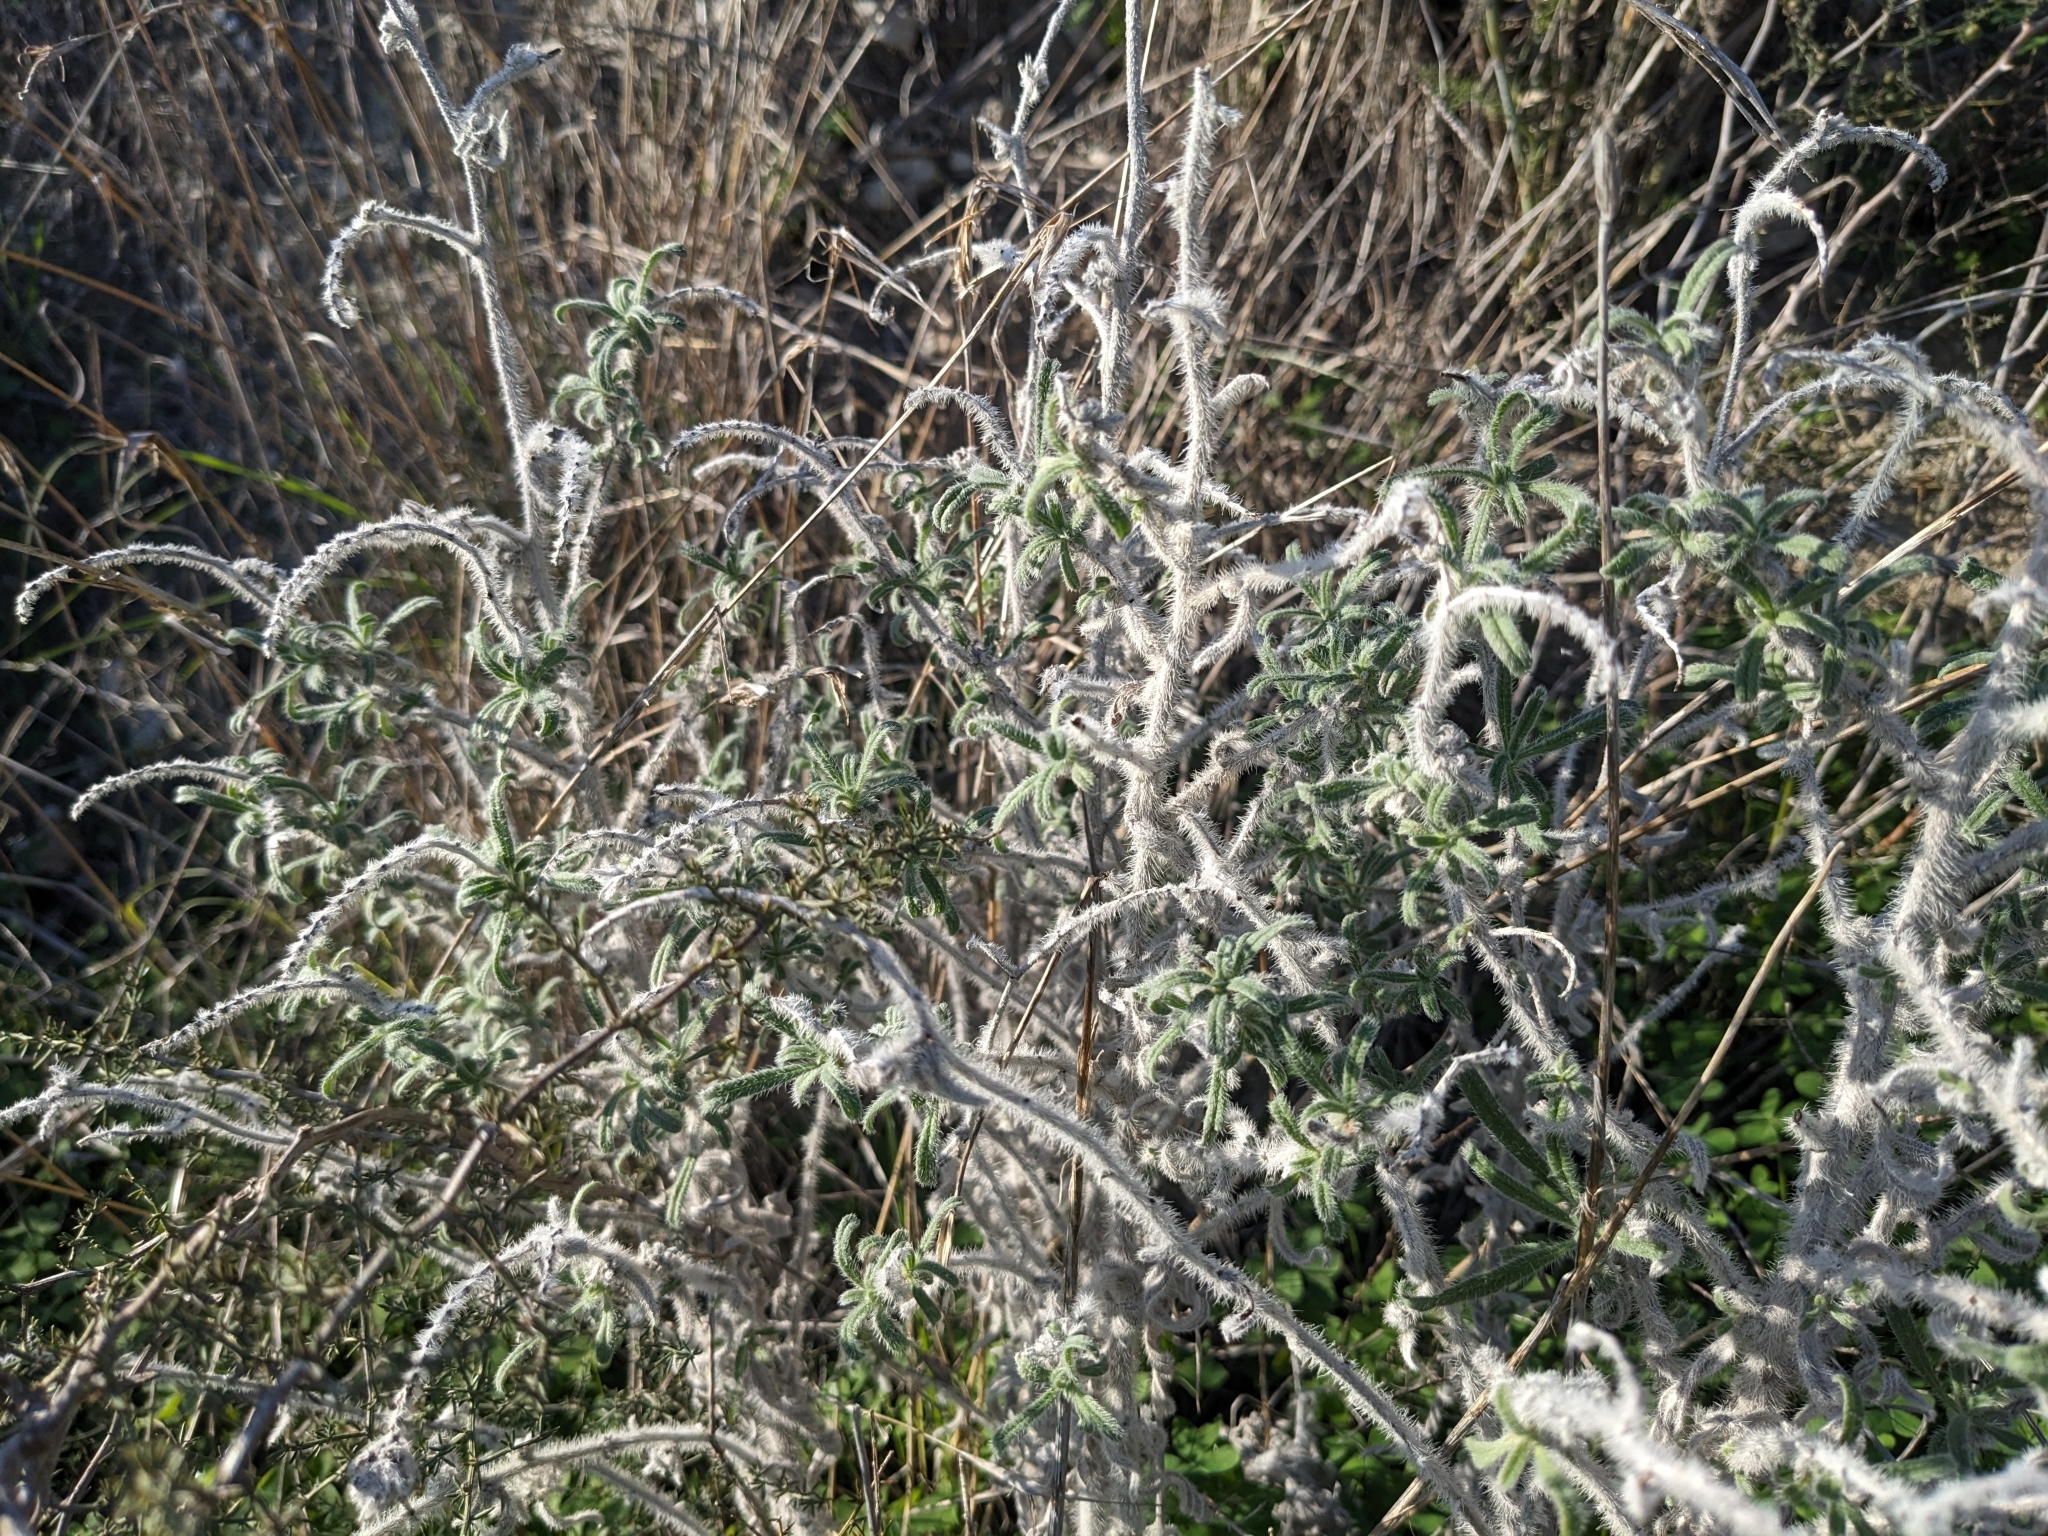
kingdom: Plantae
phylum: Tracheophyta
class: Magnoliopsida
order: Boraginales
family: Boraginaceae
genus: Echium
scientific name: Echium angustifolium
